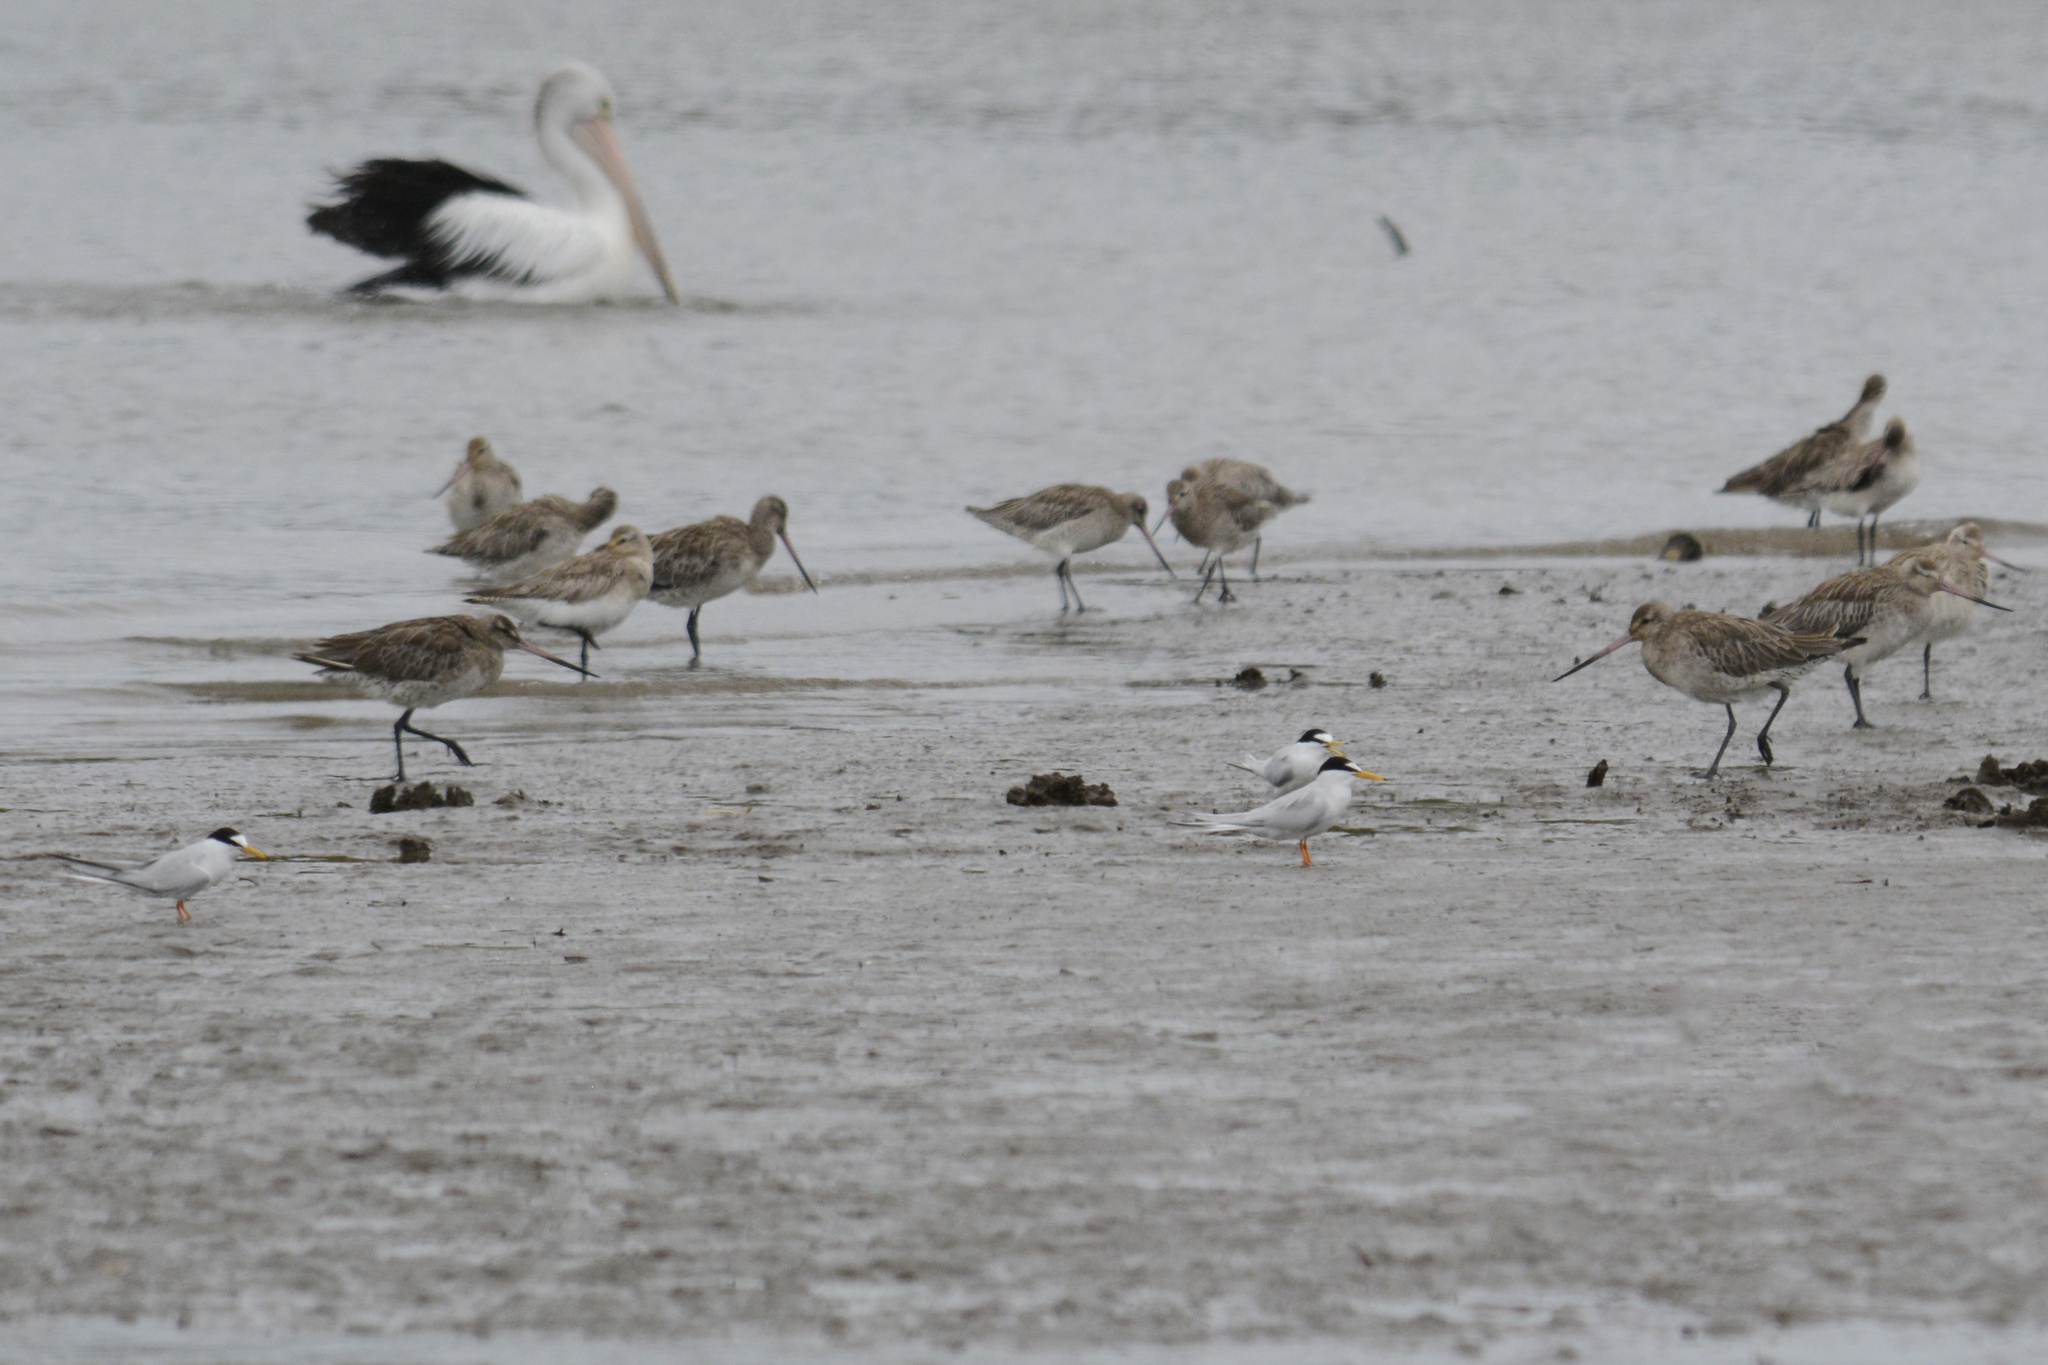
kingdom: Animalia
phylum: Chordata
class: Aves
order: Charadriiformes
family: Laridae
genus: Sternula
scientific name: Sternula albifrons
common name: Little tern
